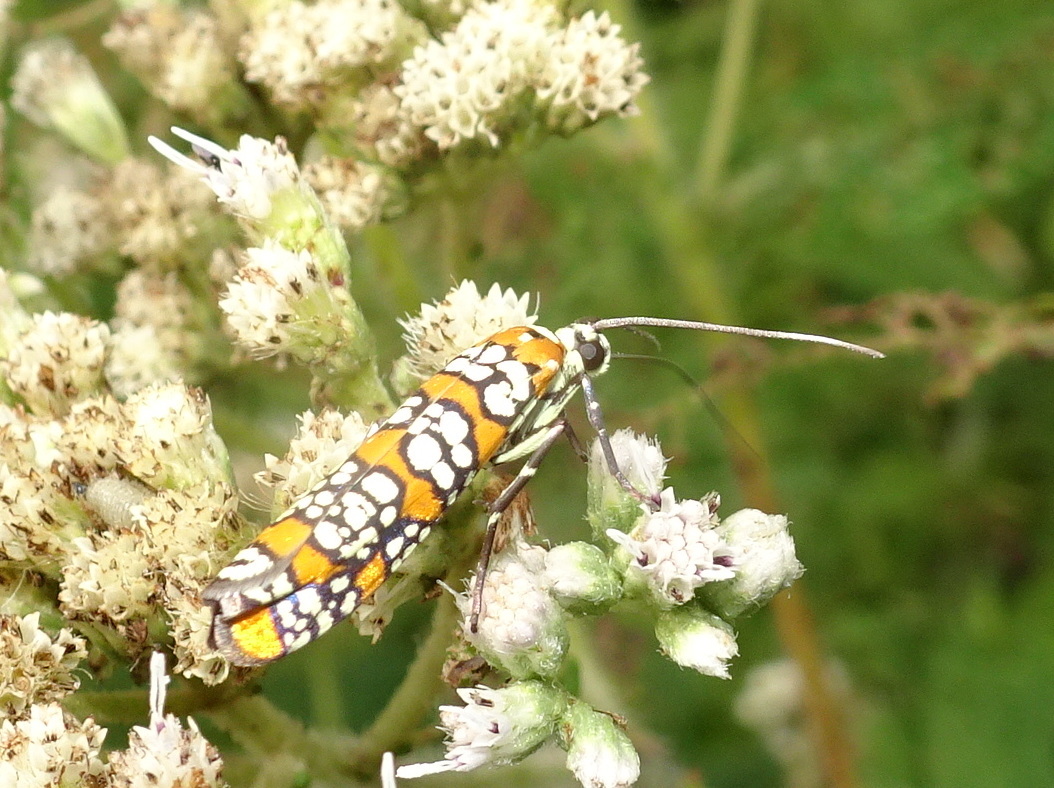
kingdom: Animalia
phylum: Arthropoda
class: Insecta
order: Lepidoptera
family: Attevidae
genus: Atteva
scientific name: Atteva punctella
